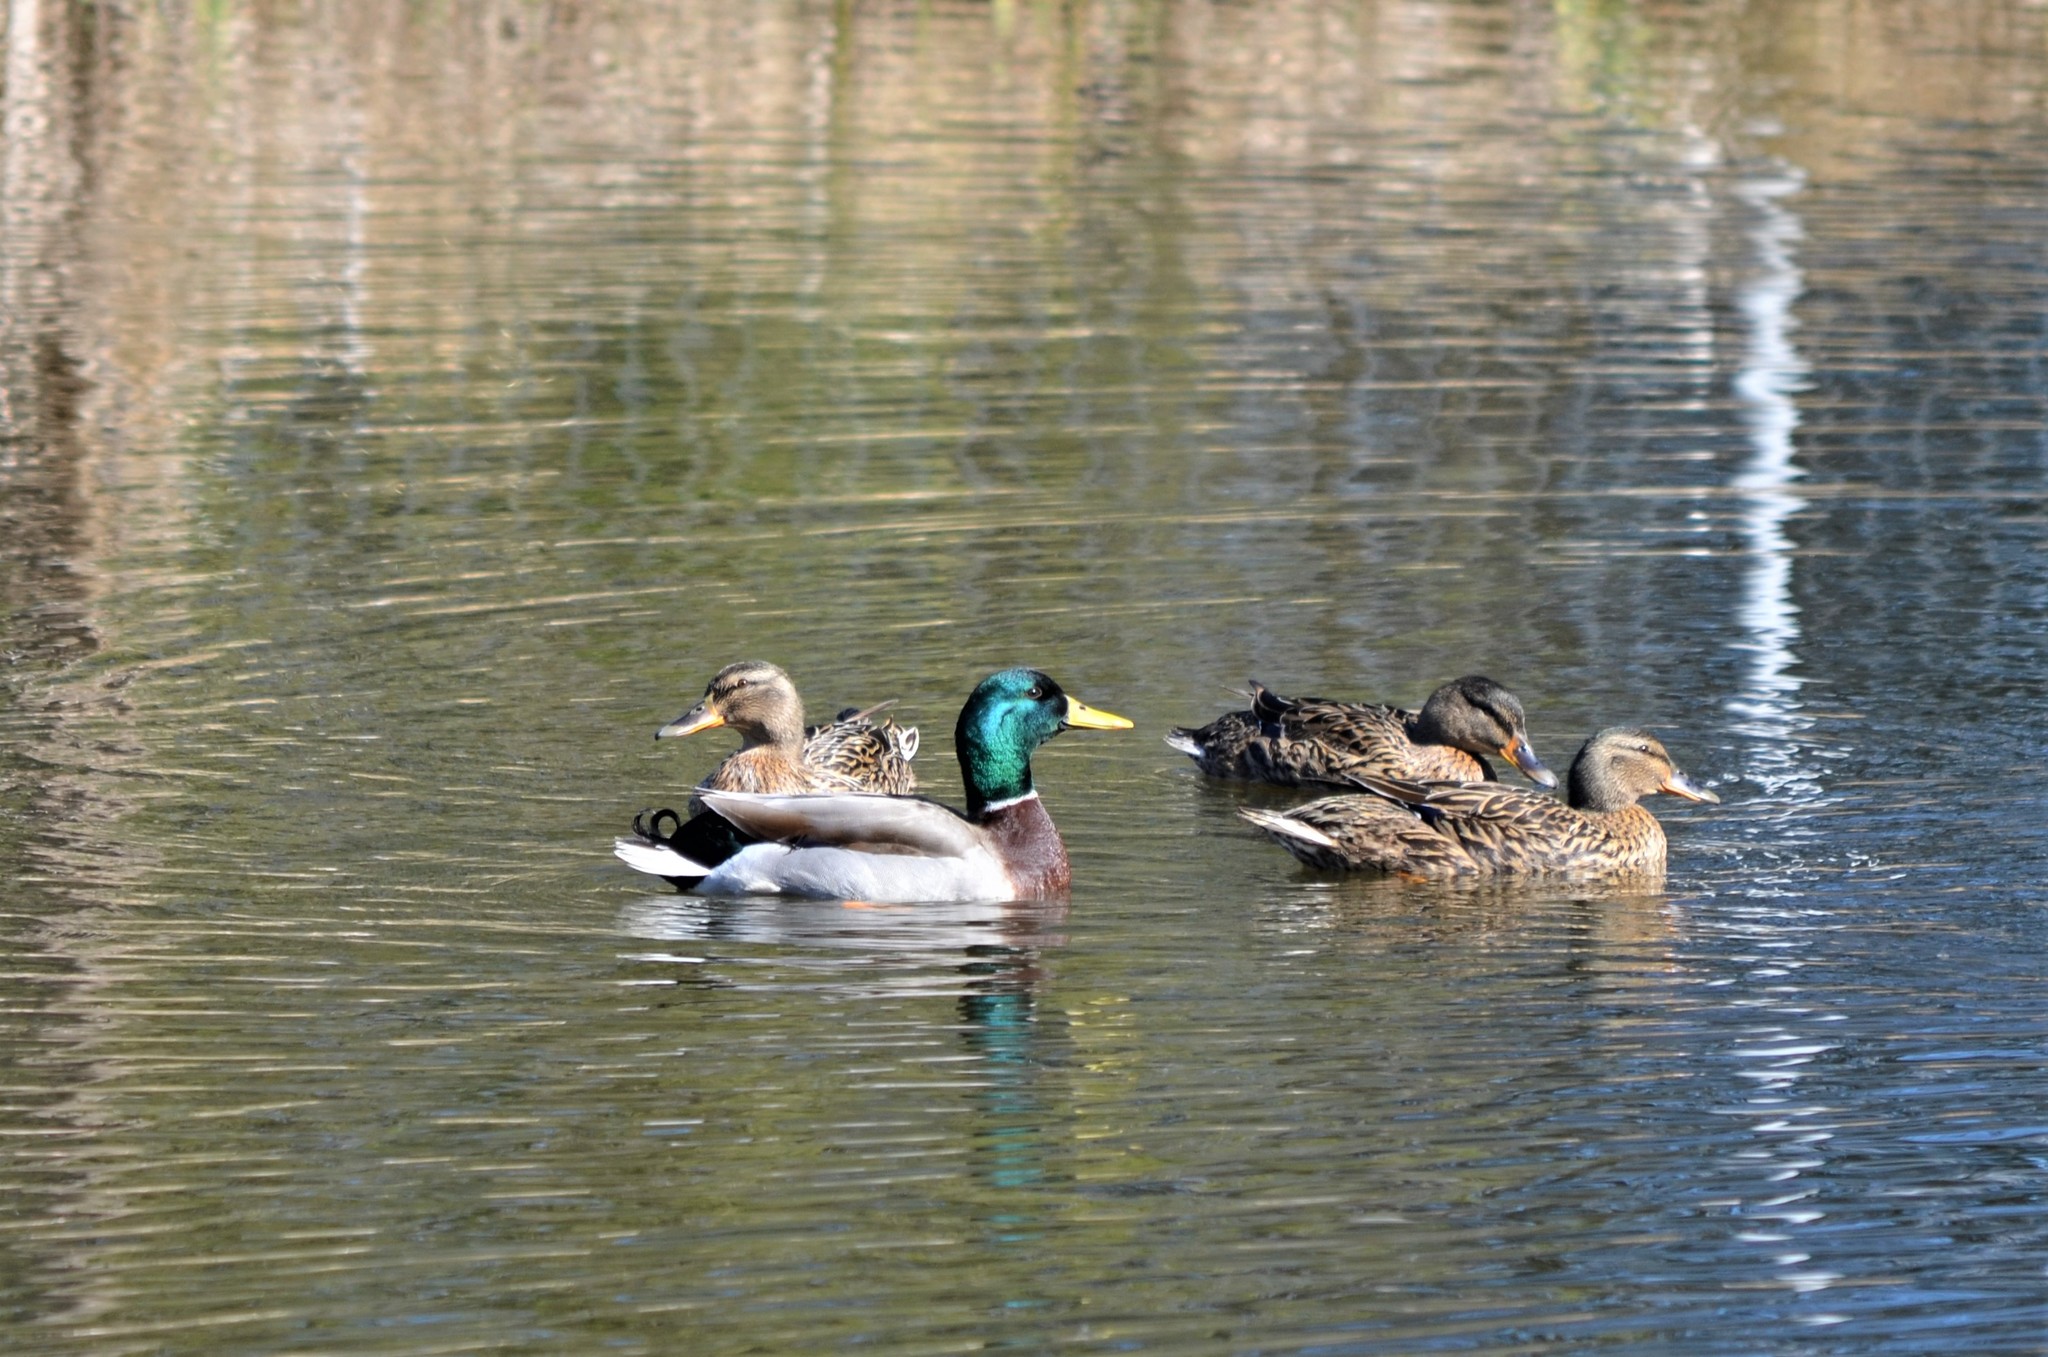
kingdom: Animalia
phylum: Chordata
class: Aves
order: Anseriformes
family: Anatidae
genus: Anas
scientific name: Anas platyrhynchos
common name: Mallard
